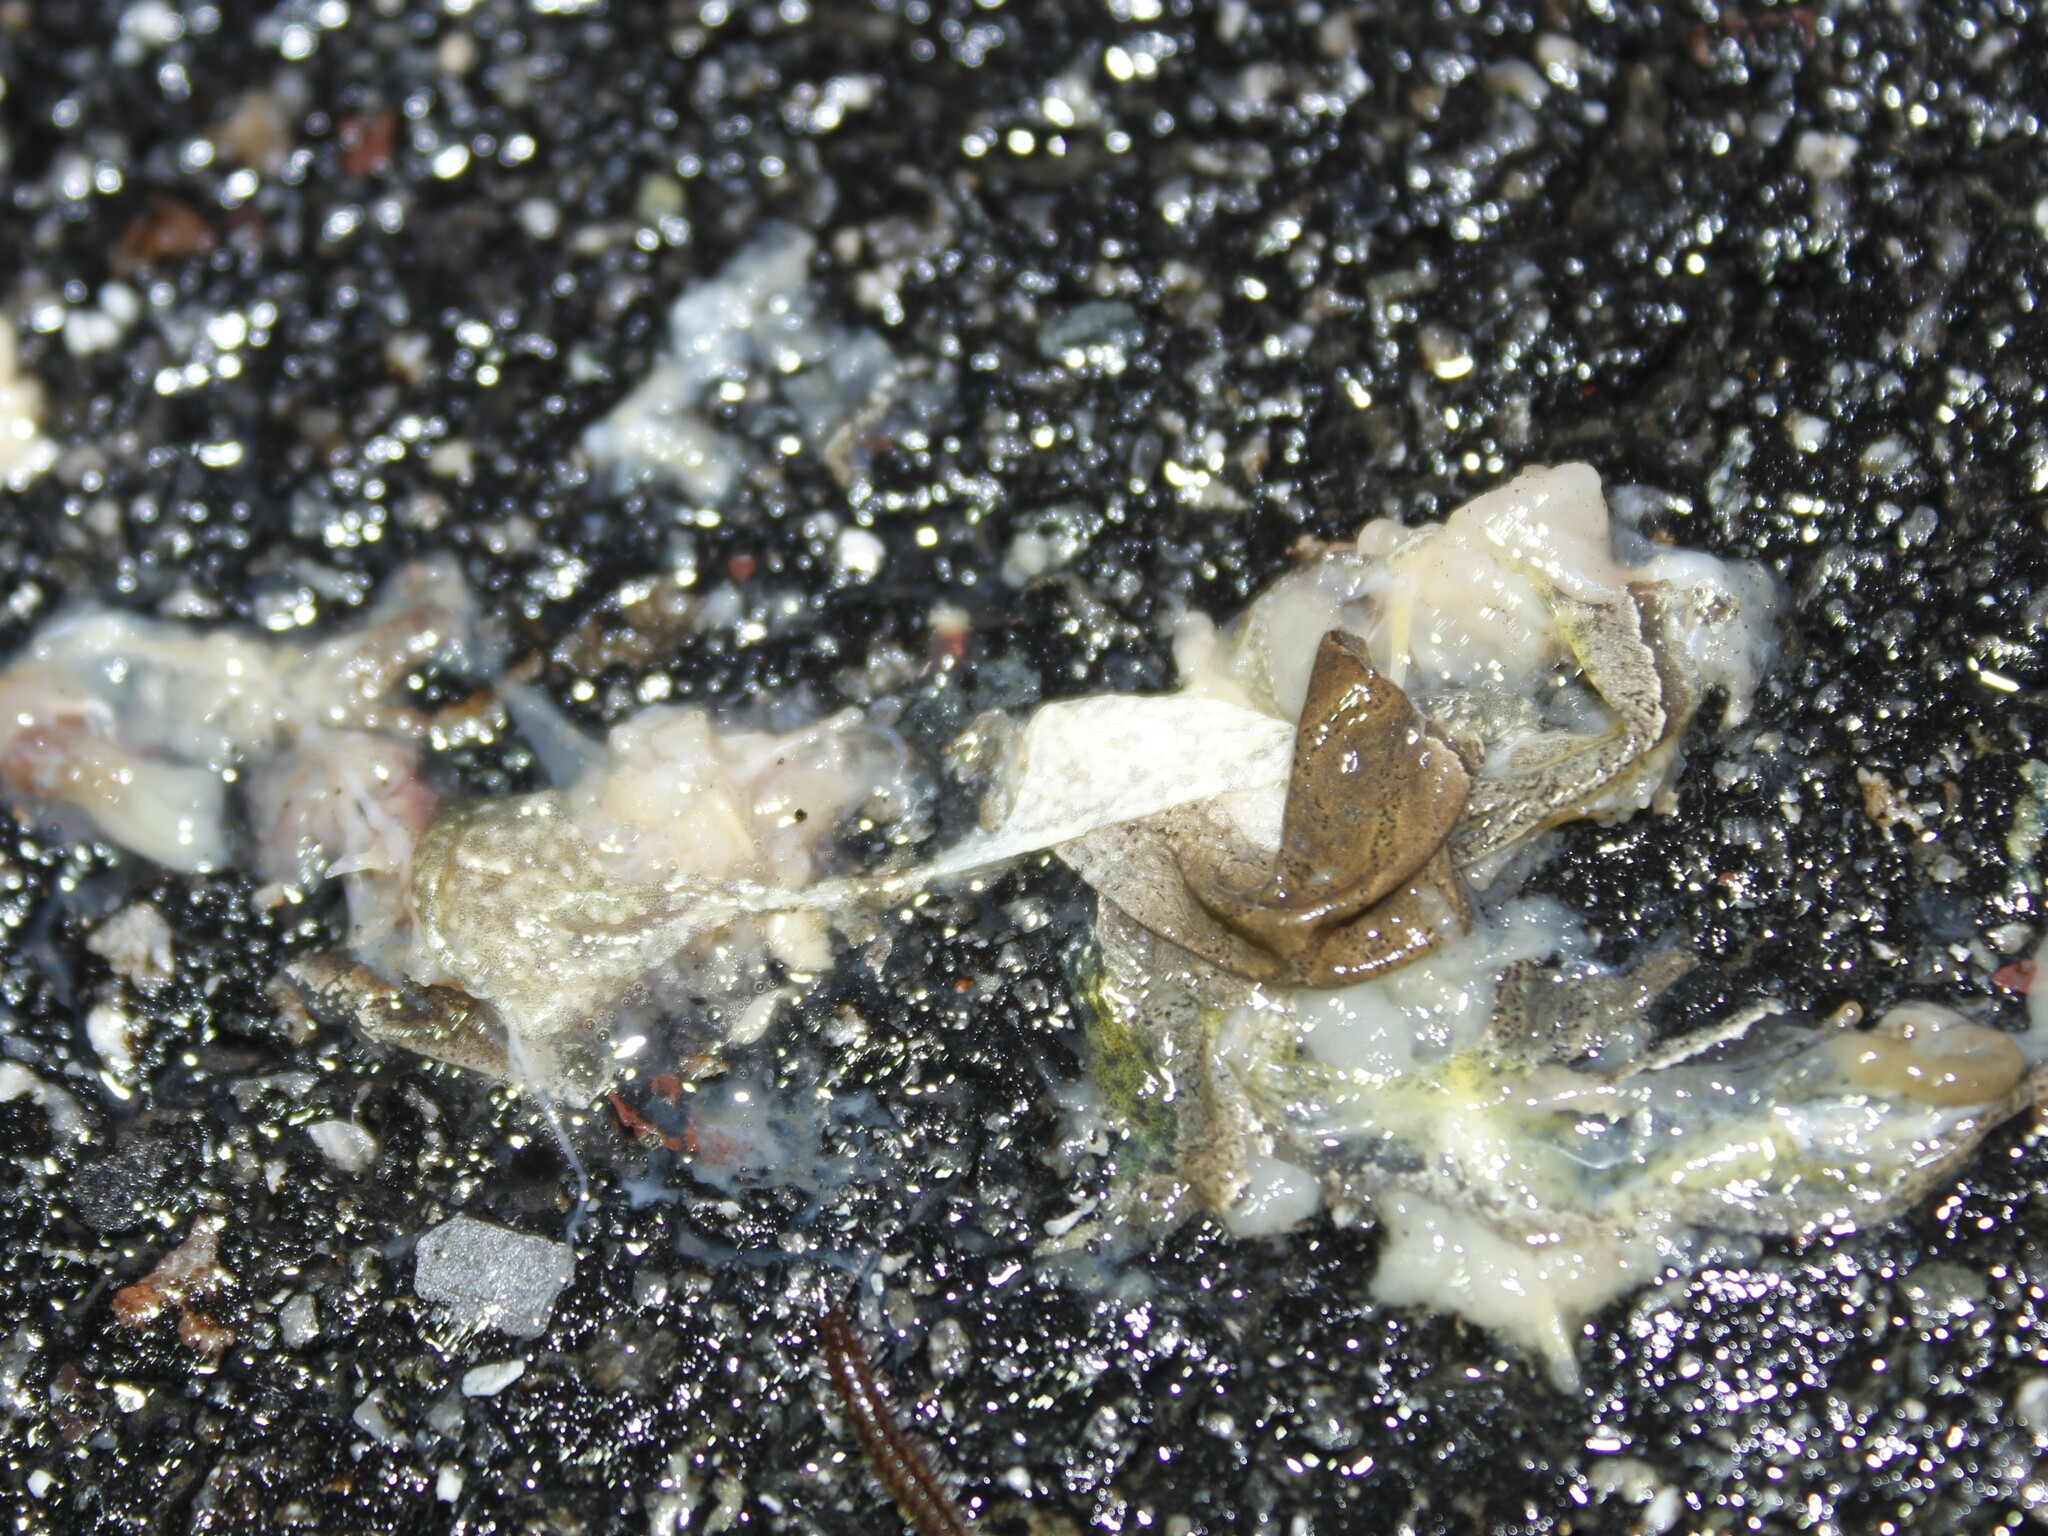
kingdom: Animalia
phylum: Chordata
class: Amphibia
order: Anura
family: Hylidae
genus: Pseudacris
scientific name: Pseudacris crucifer
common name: Spring peeper
